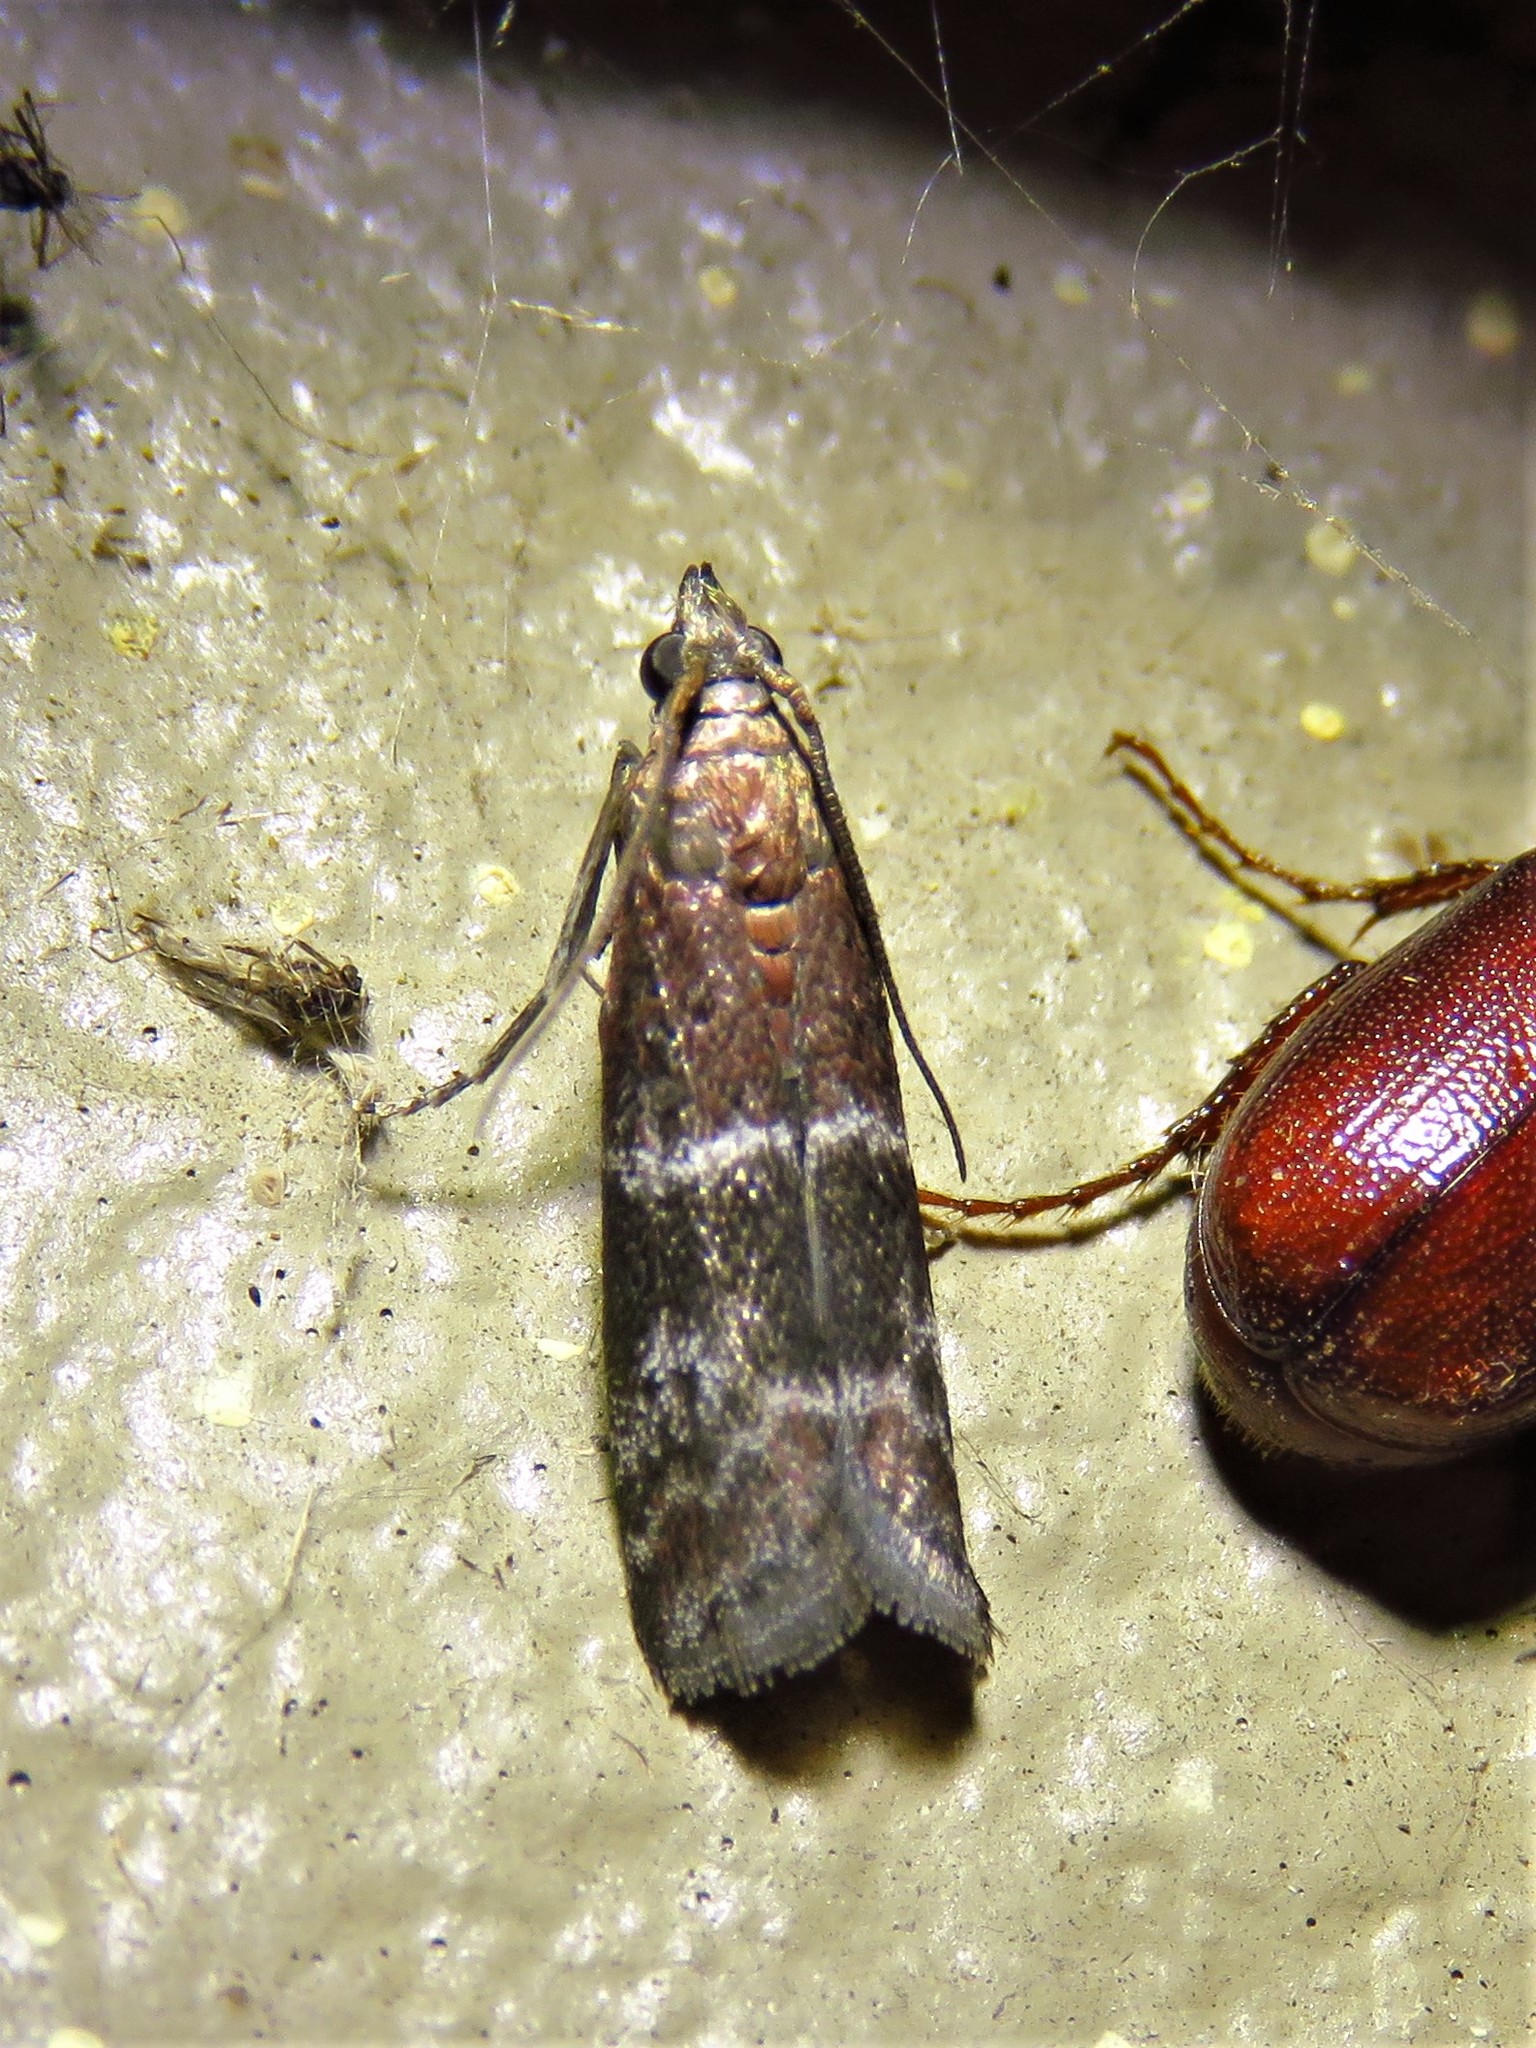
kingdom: Animalia
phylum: Arthropoda
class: Insecta
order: Lepidoptera
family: Pyralidae
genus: Moodna
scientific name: Moodna ostrinella
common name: Darker moodna moth
